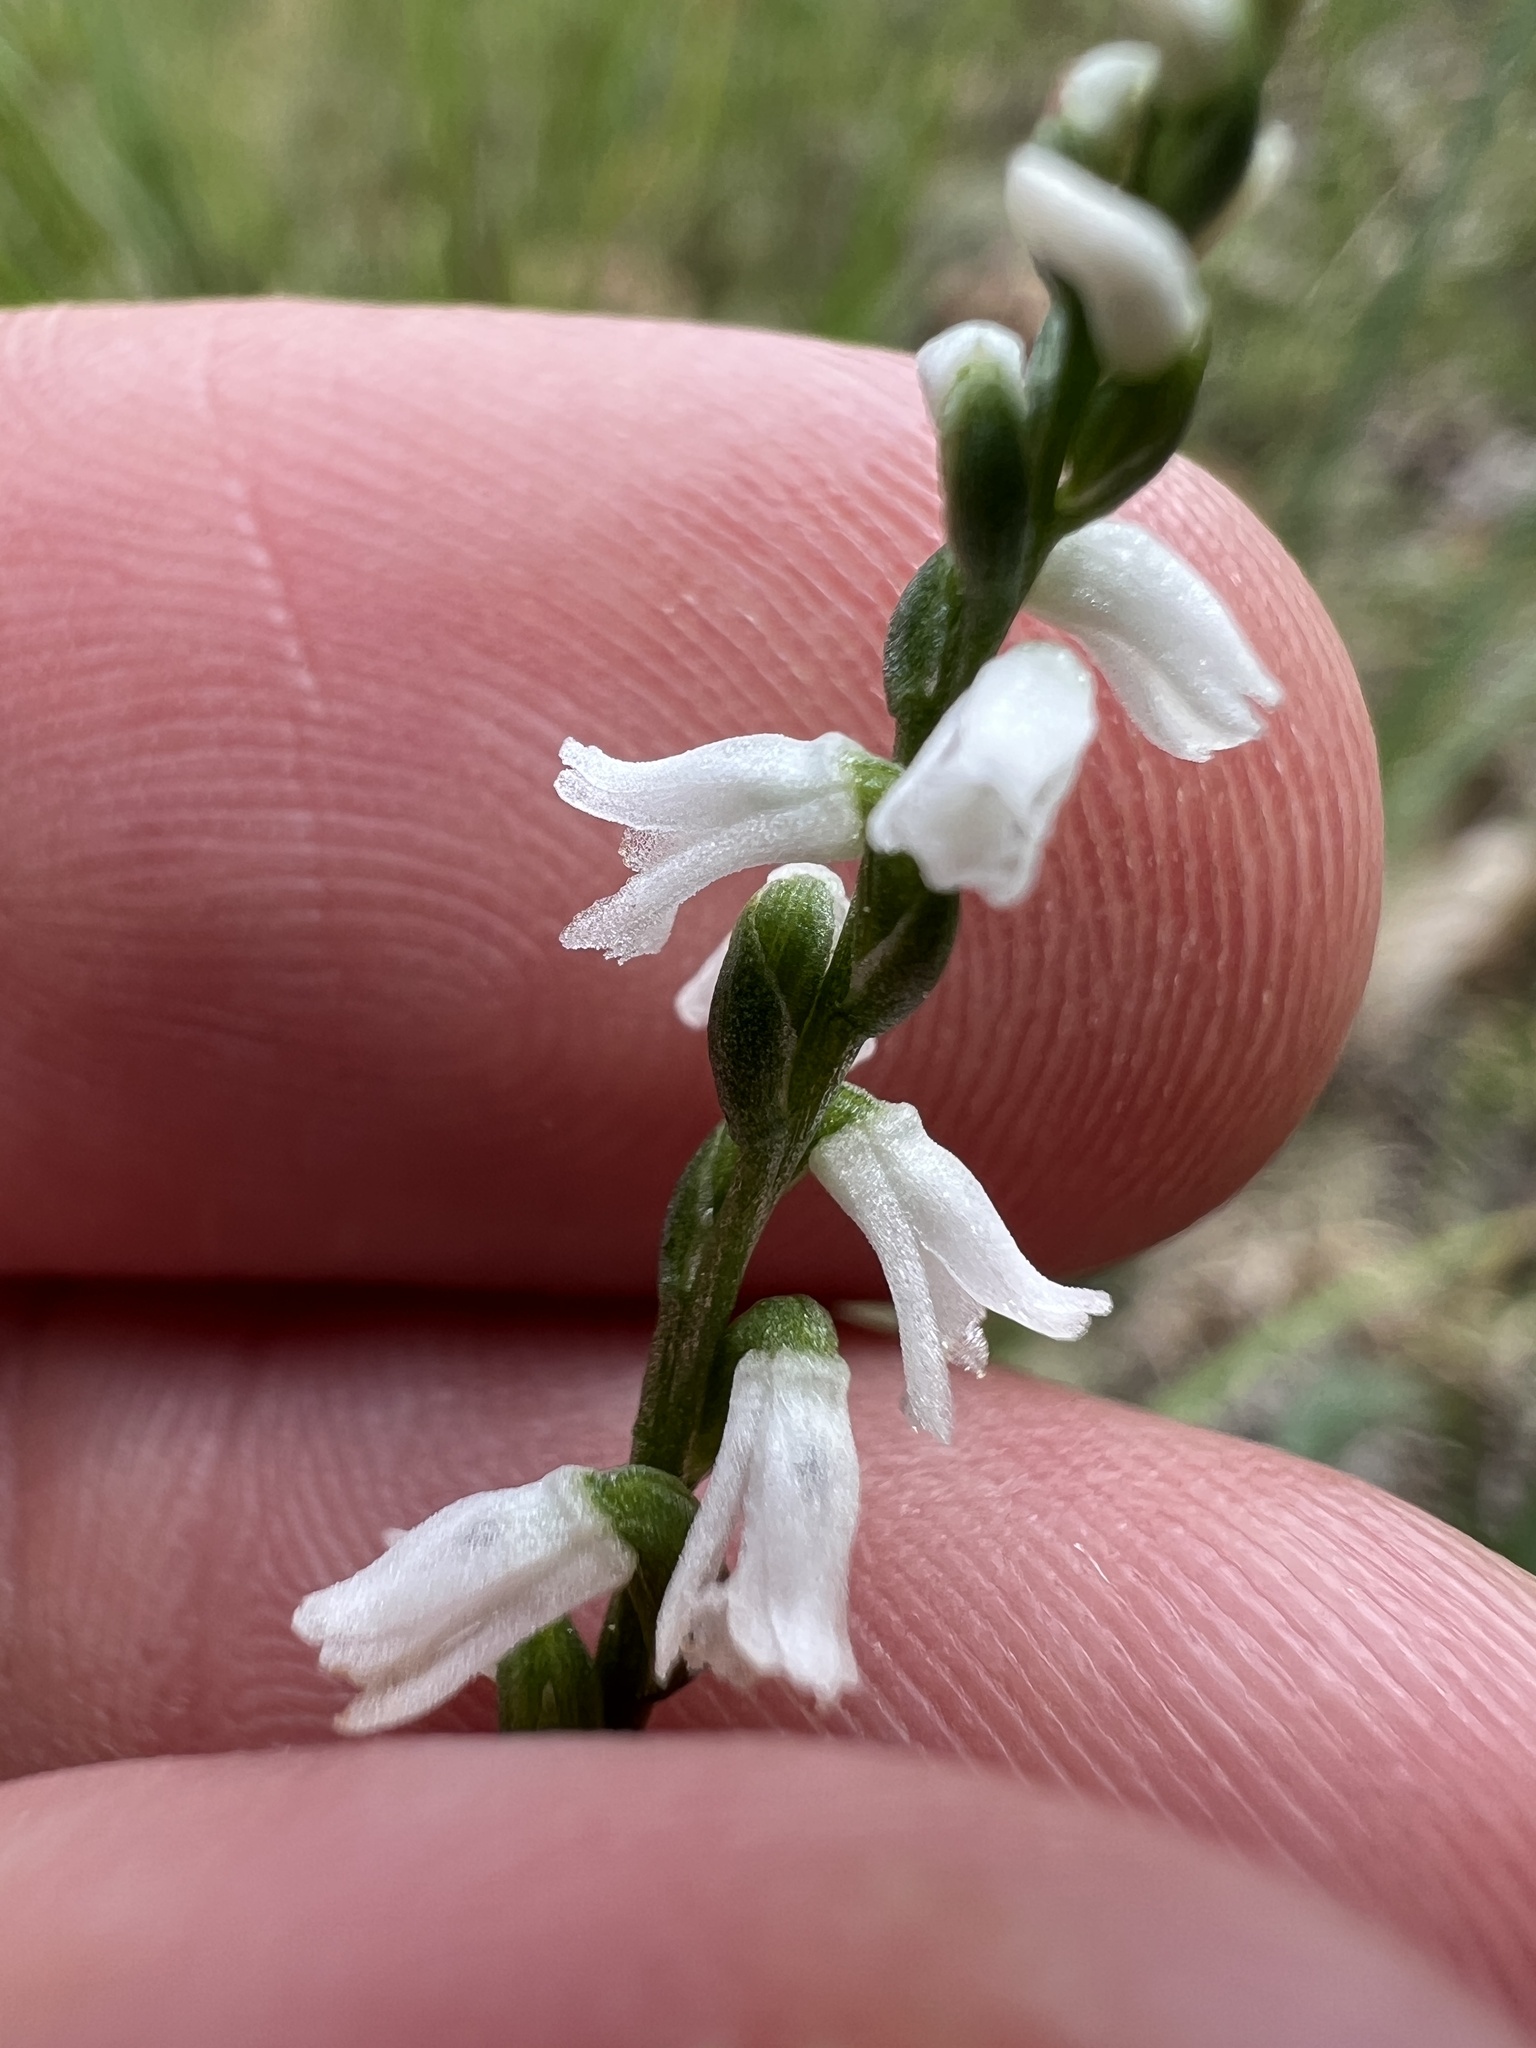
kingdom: Plantae
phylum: Tracheophyta
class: Liliopsida
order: Asparagales
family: Orchidaceae
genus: Spiranthes
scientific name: Spiranthes tuberosa
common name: Little ladies'-tresses
